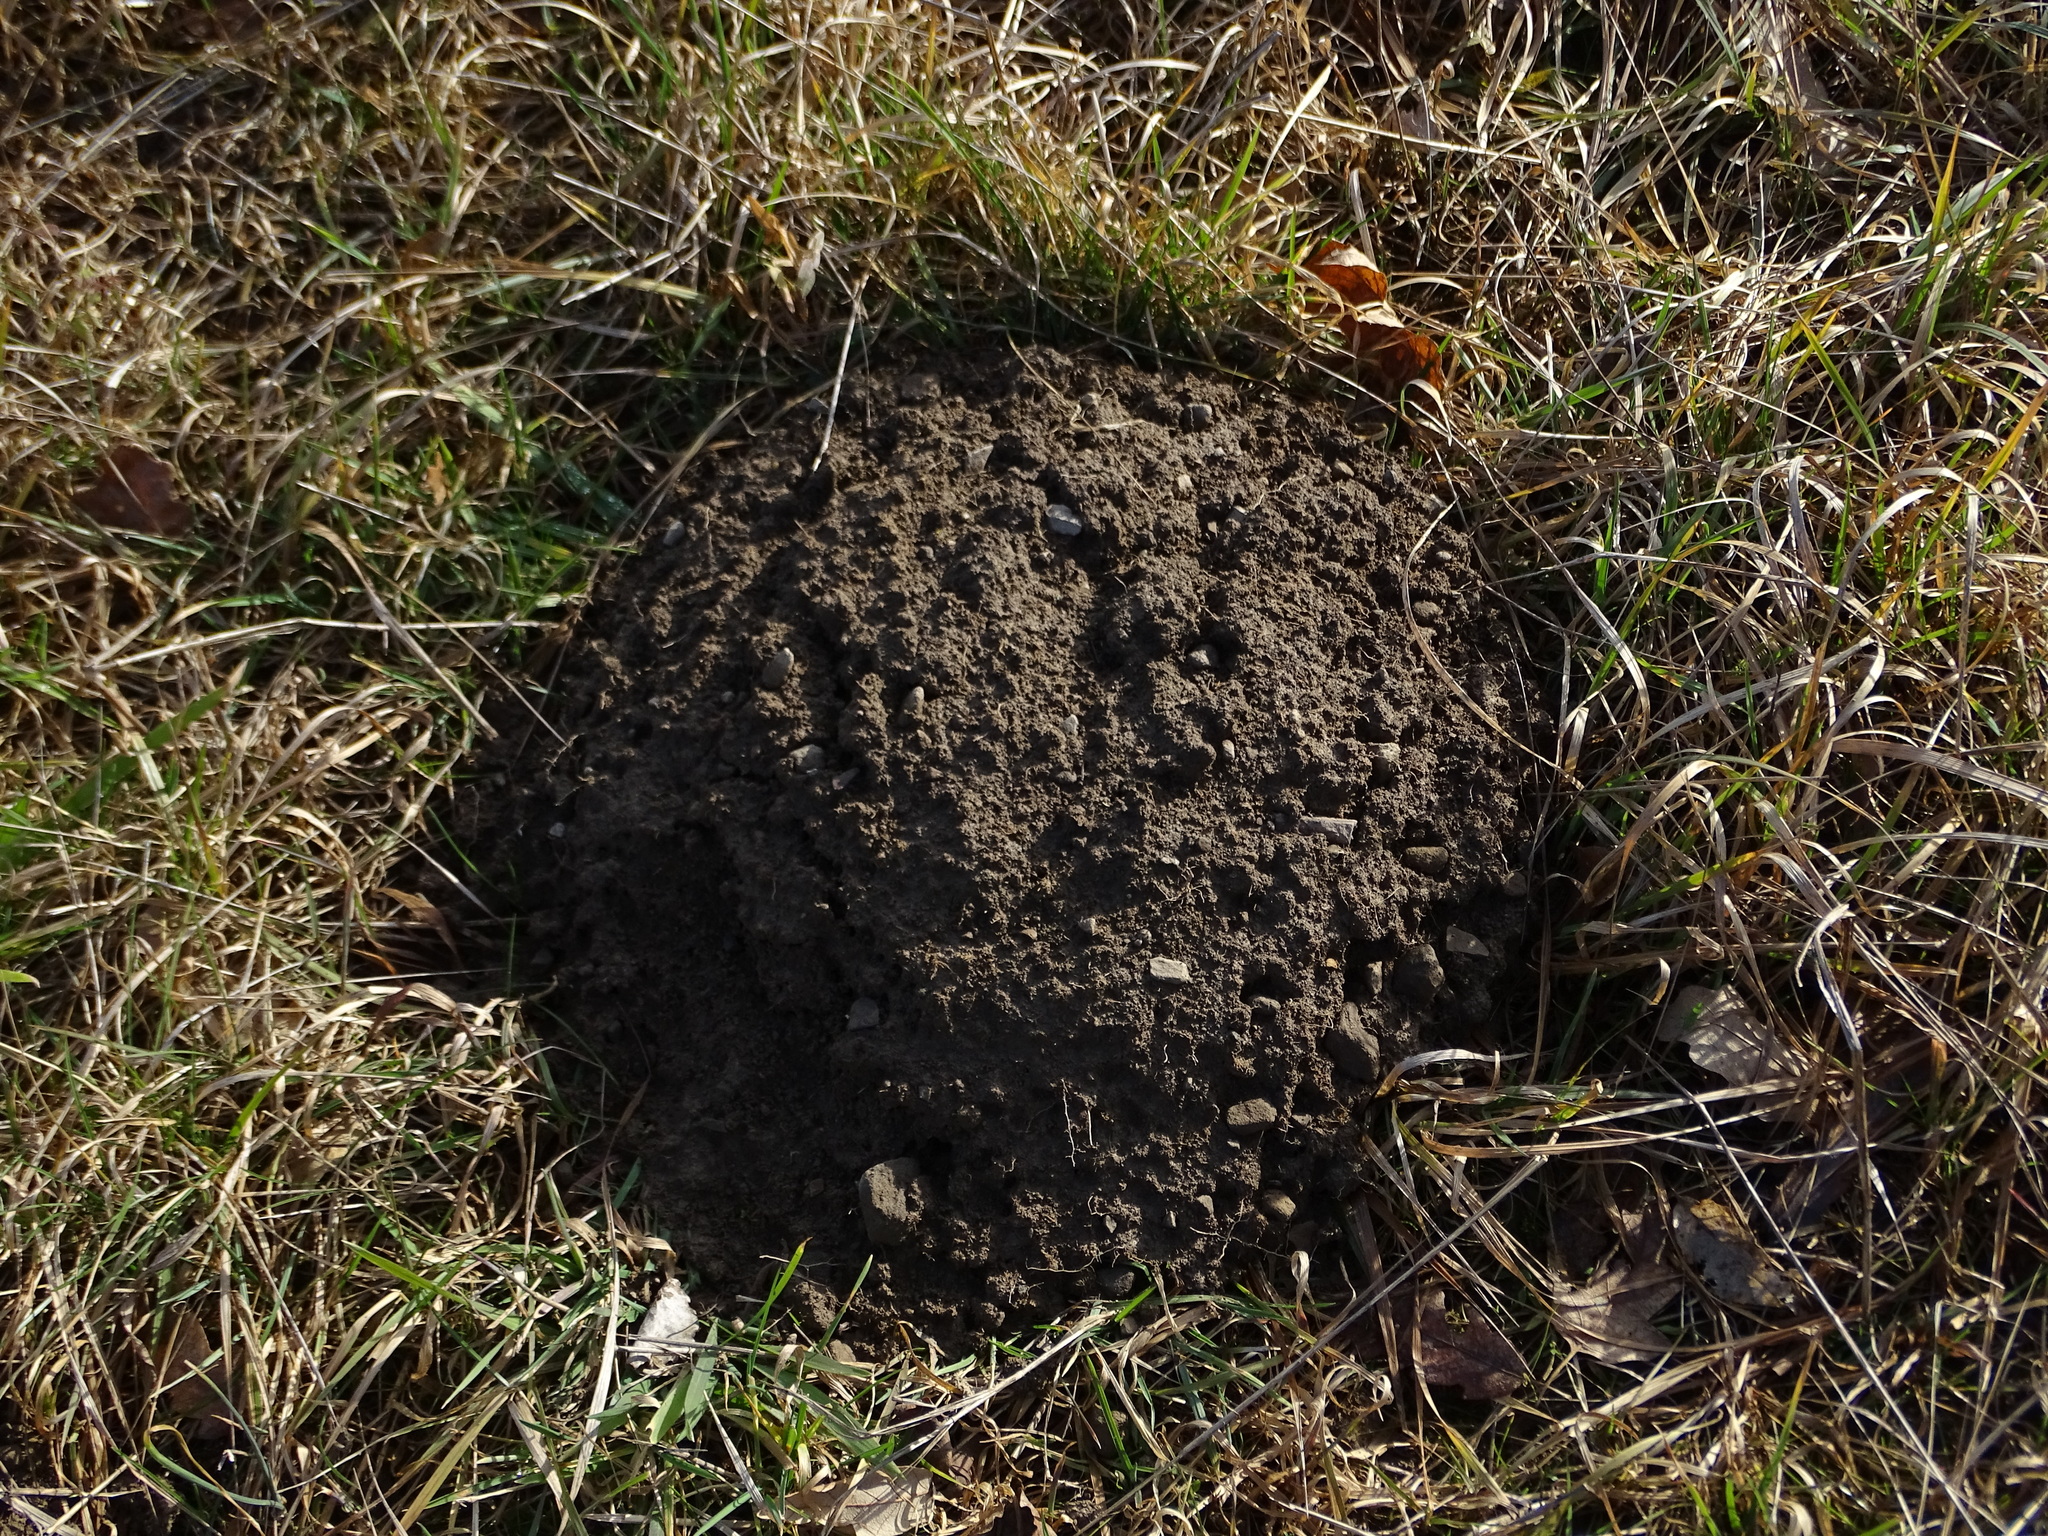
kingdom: Animalia
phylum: Chordata
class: Mammalia
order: Soricomorpha
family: Talpidae
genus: Talpa
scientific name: Talpa europaea
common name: European mole
